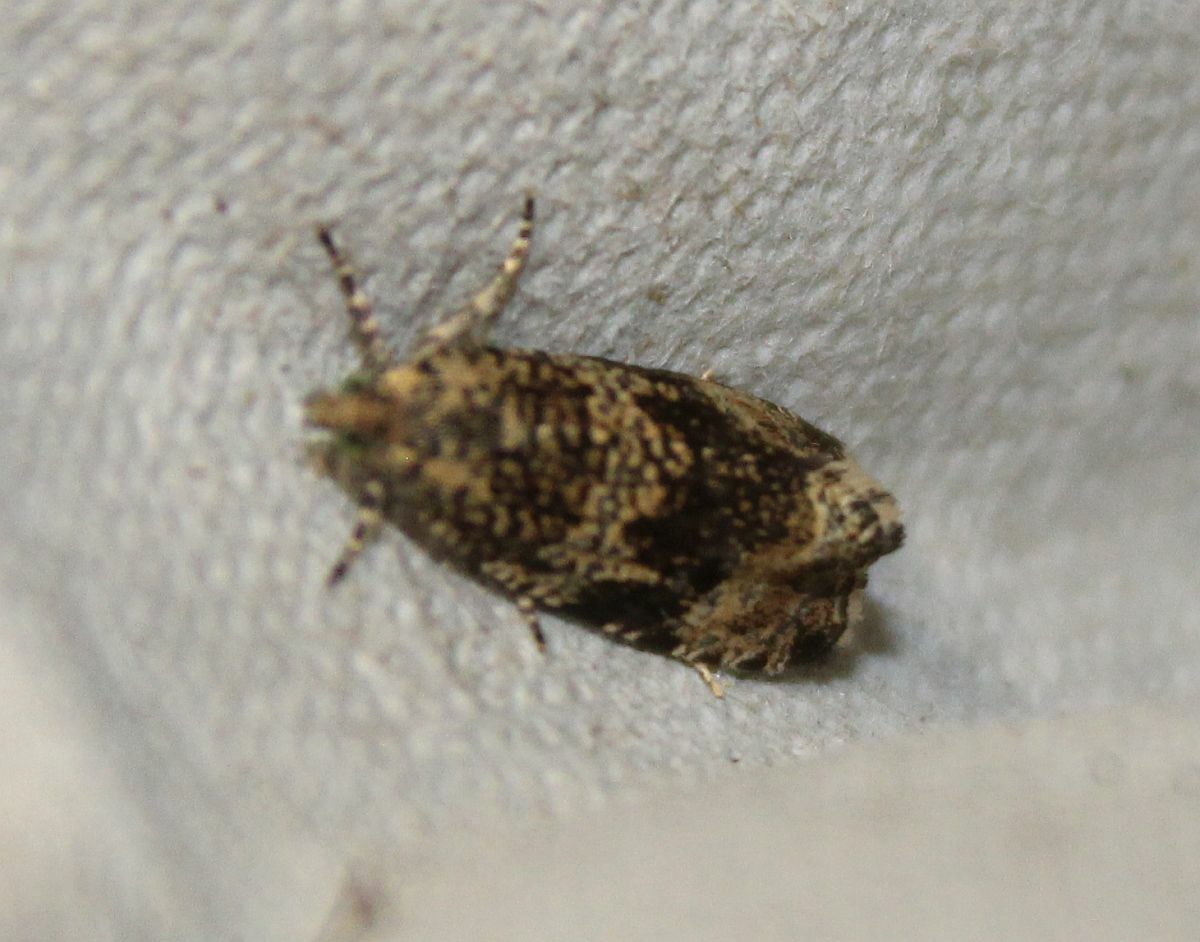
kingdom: Animalia
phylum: Arthropoda
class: Insecta
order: Lepidoptera
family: Tortricidae
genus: Syricoris
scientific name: Syricoris lacunana
